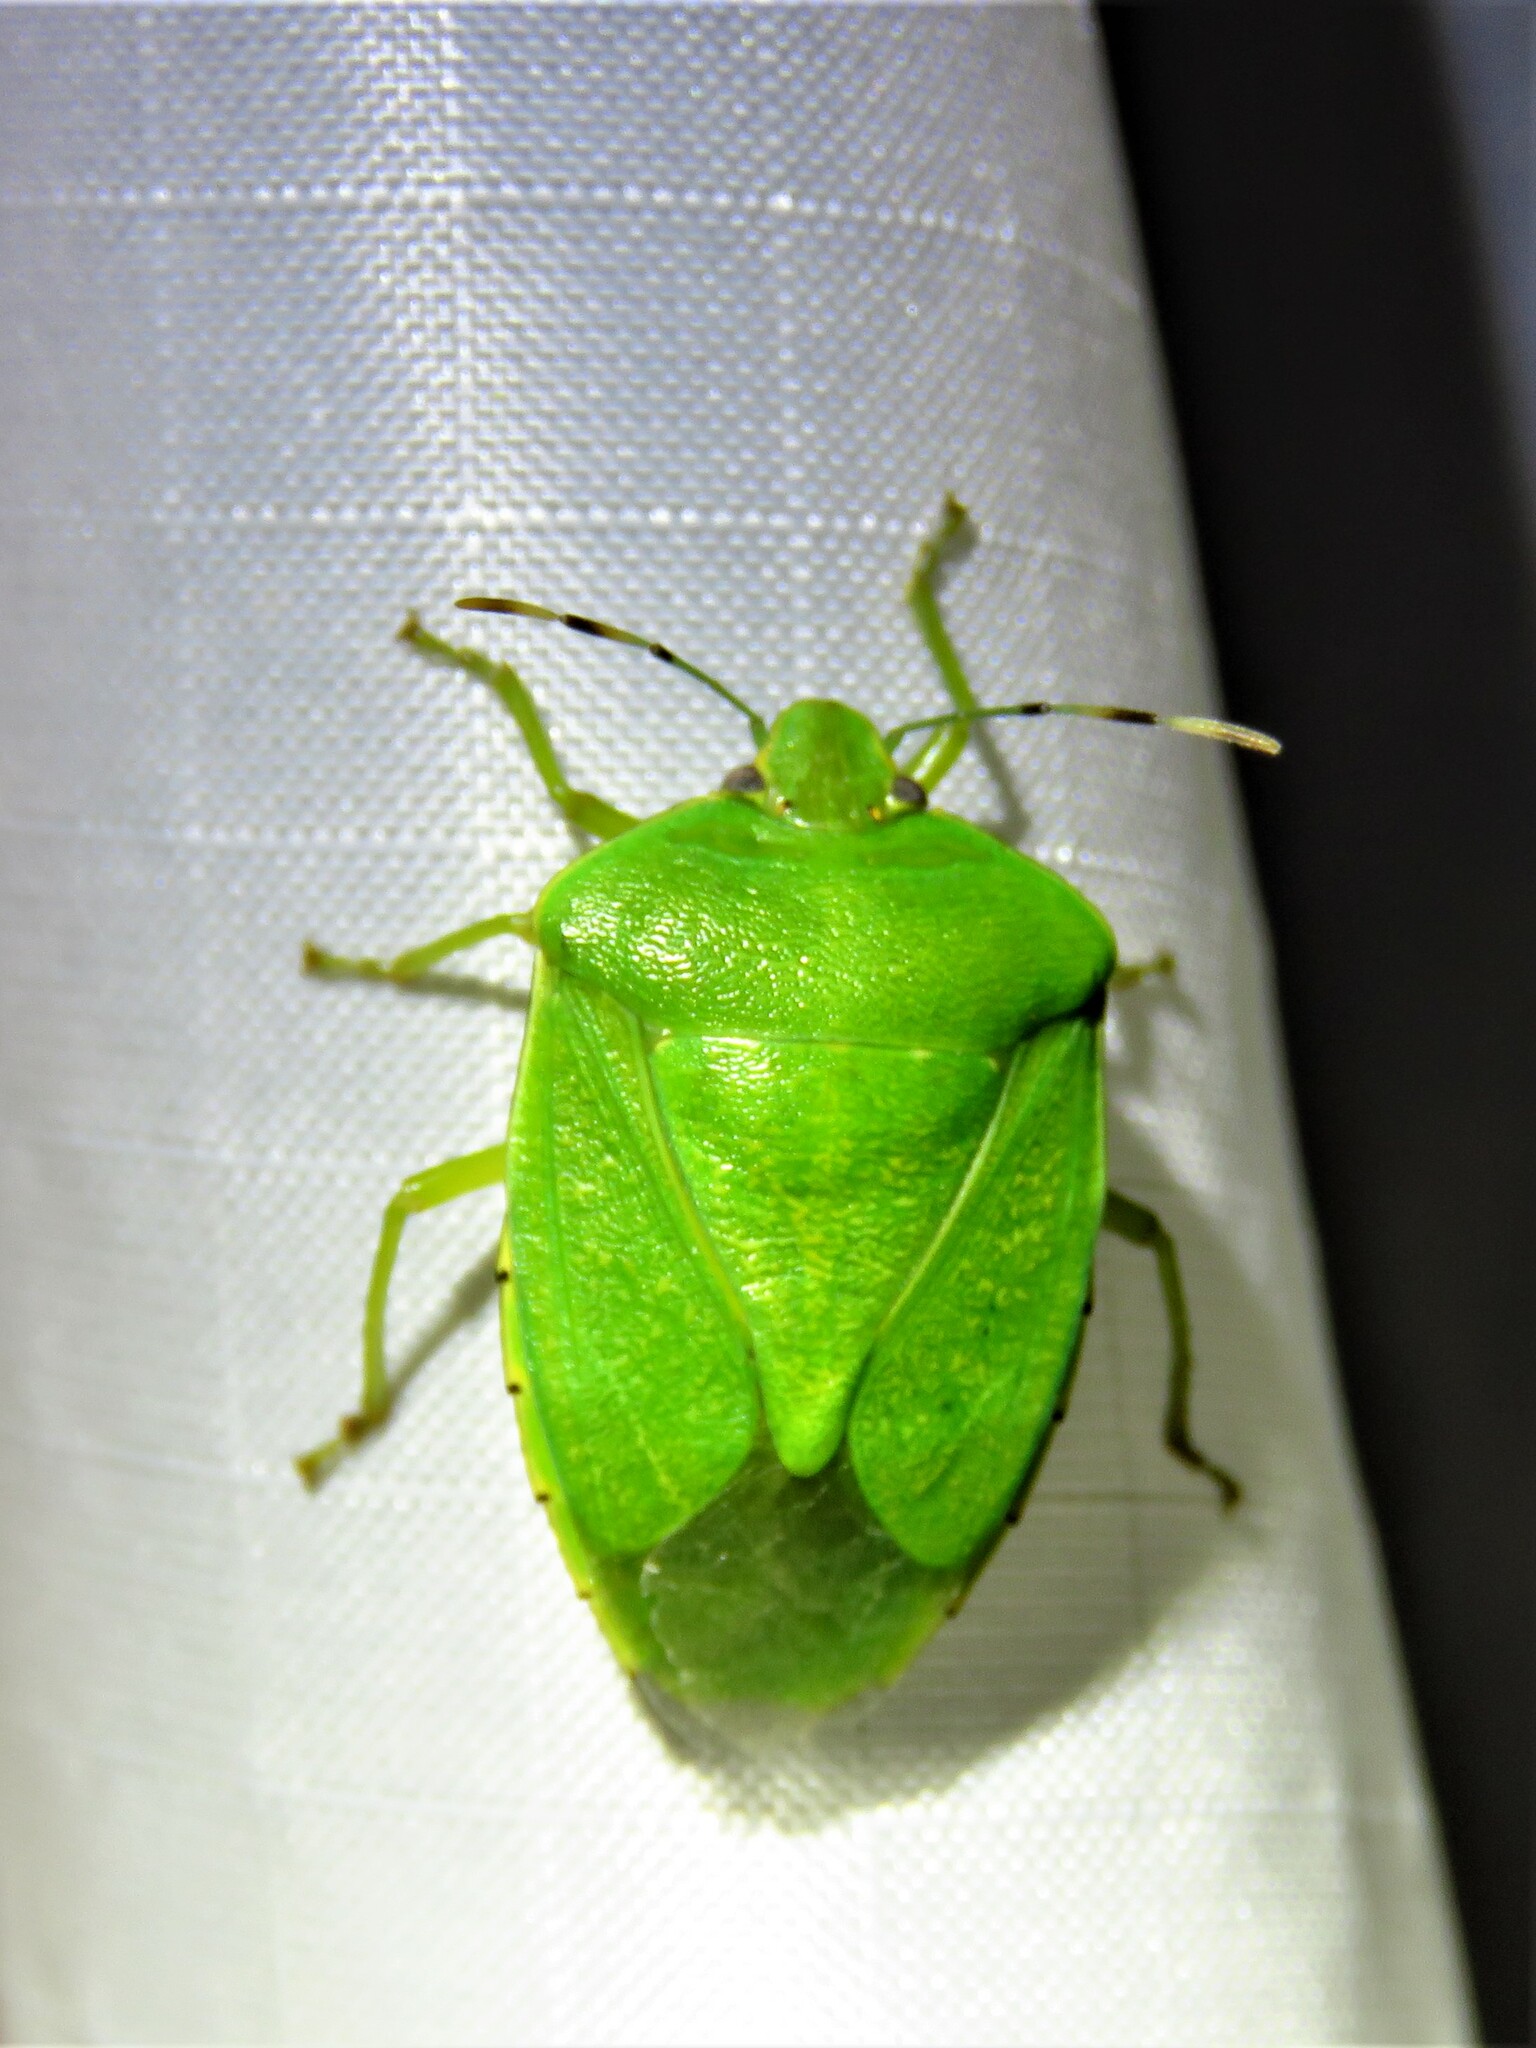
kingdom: Animalia
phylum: Arthropoda
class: Insecta
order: Hemiptera
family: Pentatomidae
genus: Chinavia
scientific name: Chinavia hilaris
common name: Green stink bug
